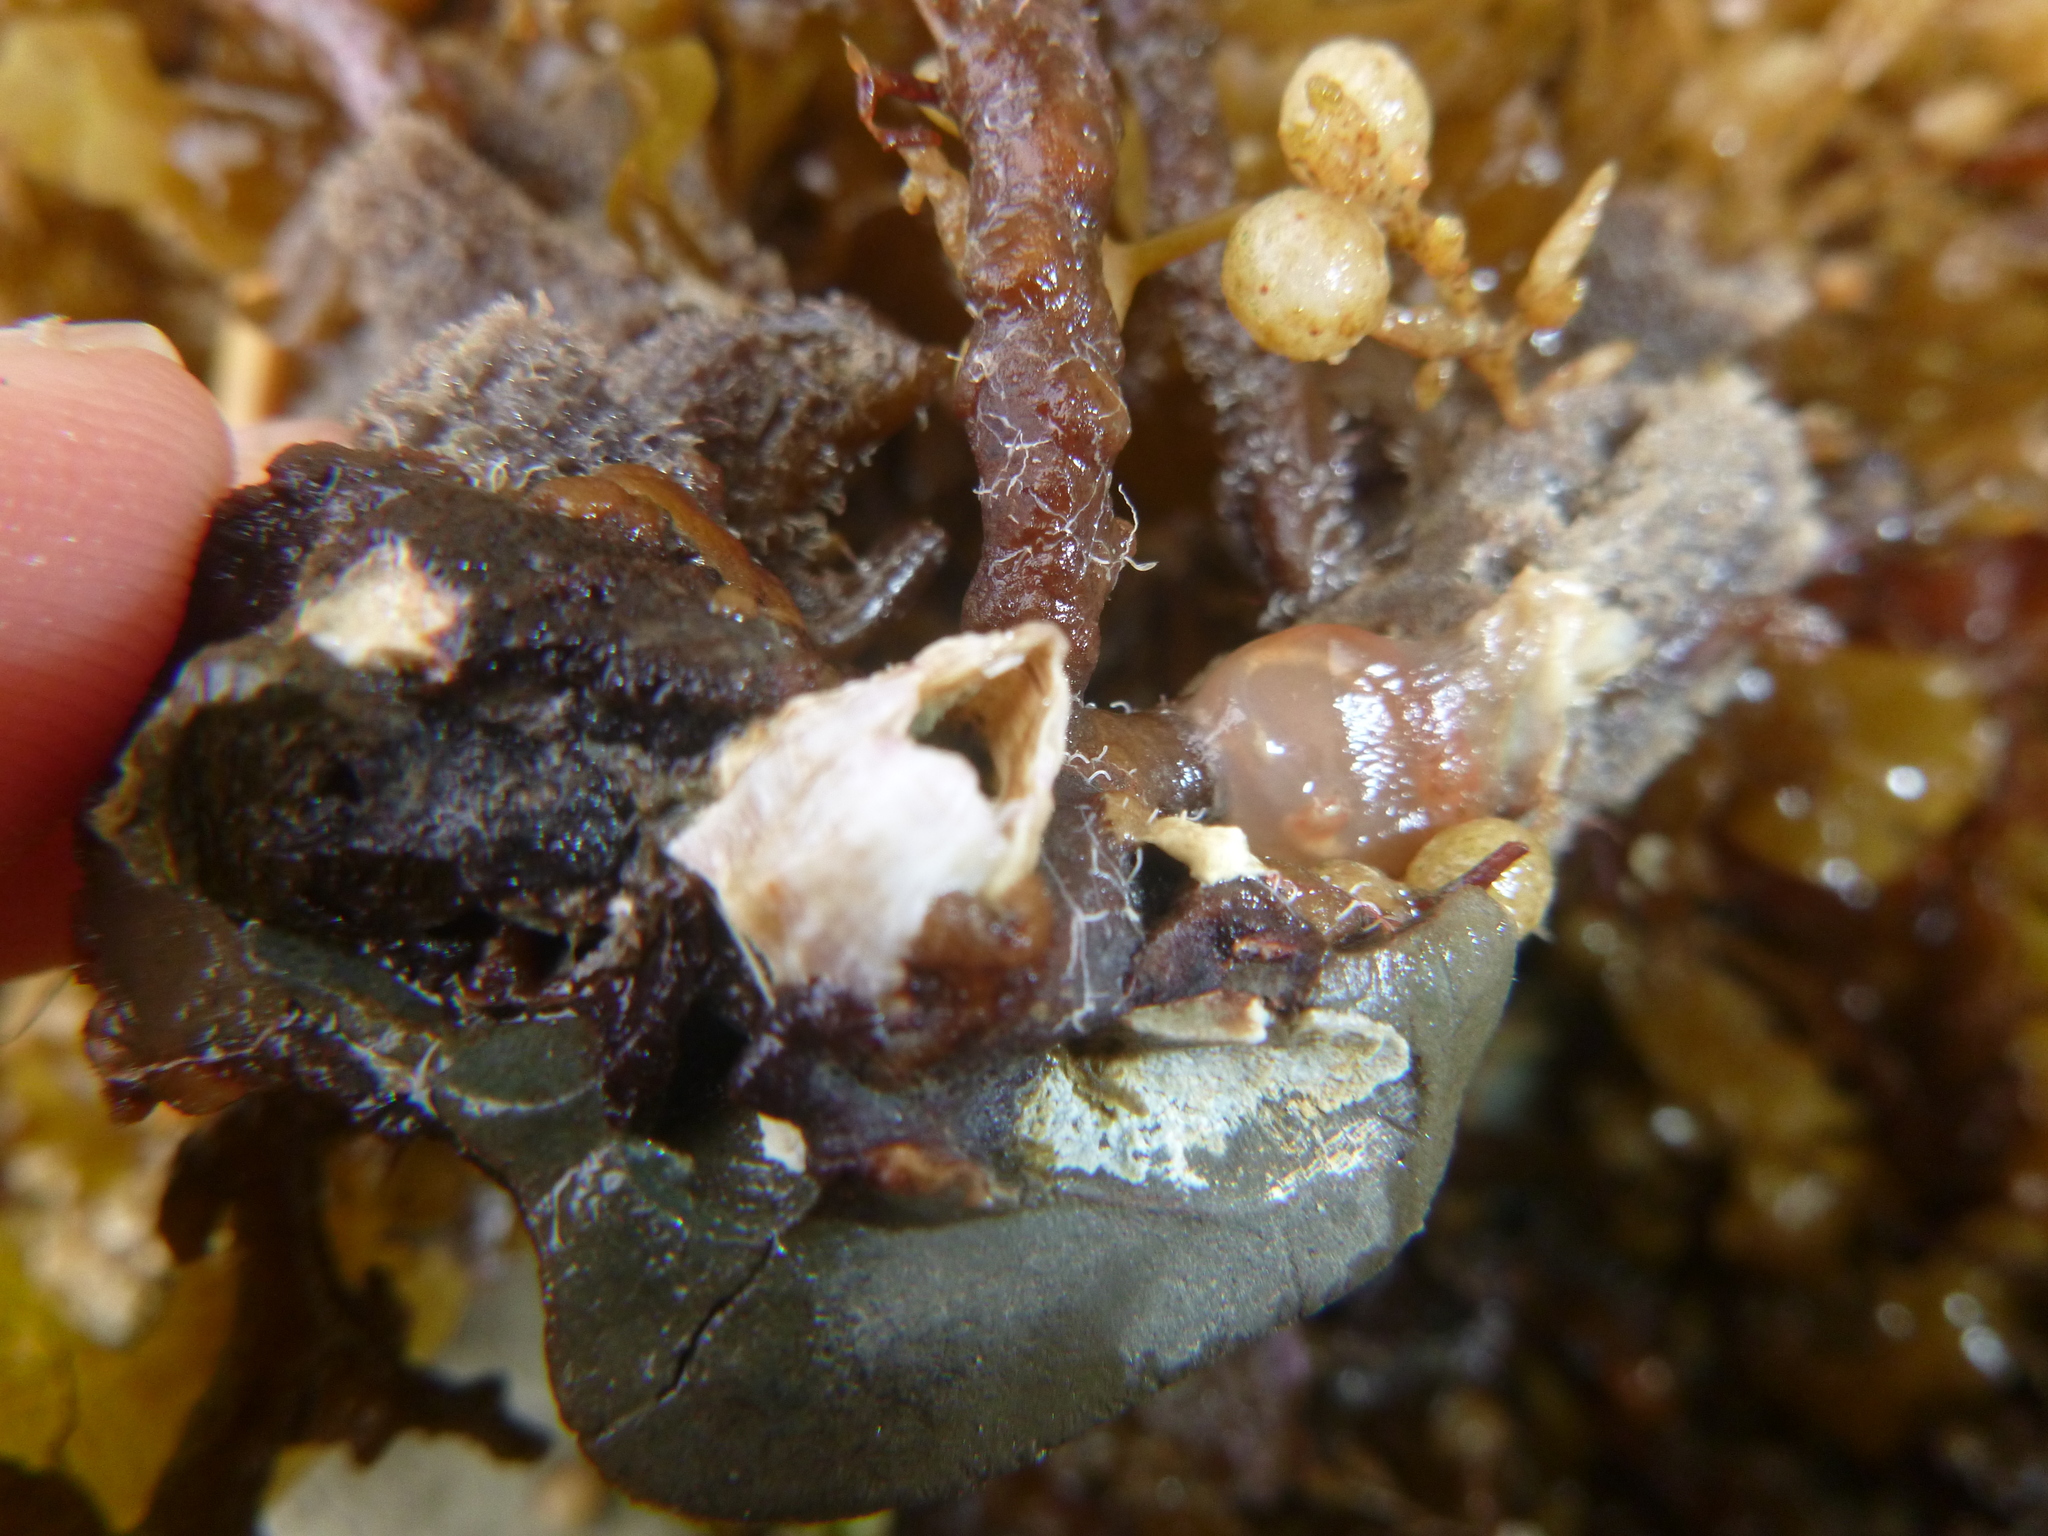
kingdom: Animalia
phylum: Arthropoda
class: Maxillopoda
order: Sessilia
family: Balanidae
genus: Balanus
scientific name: Balanus trigonus
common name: Triangle barnacle
